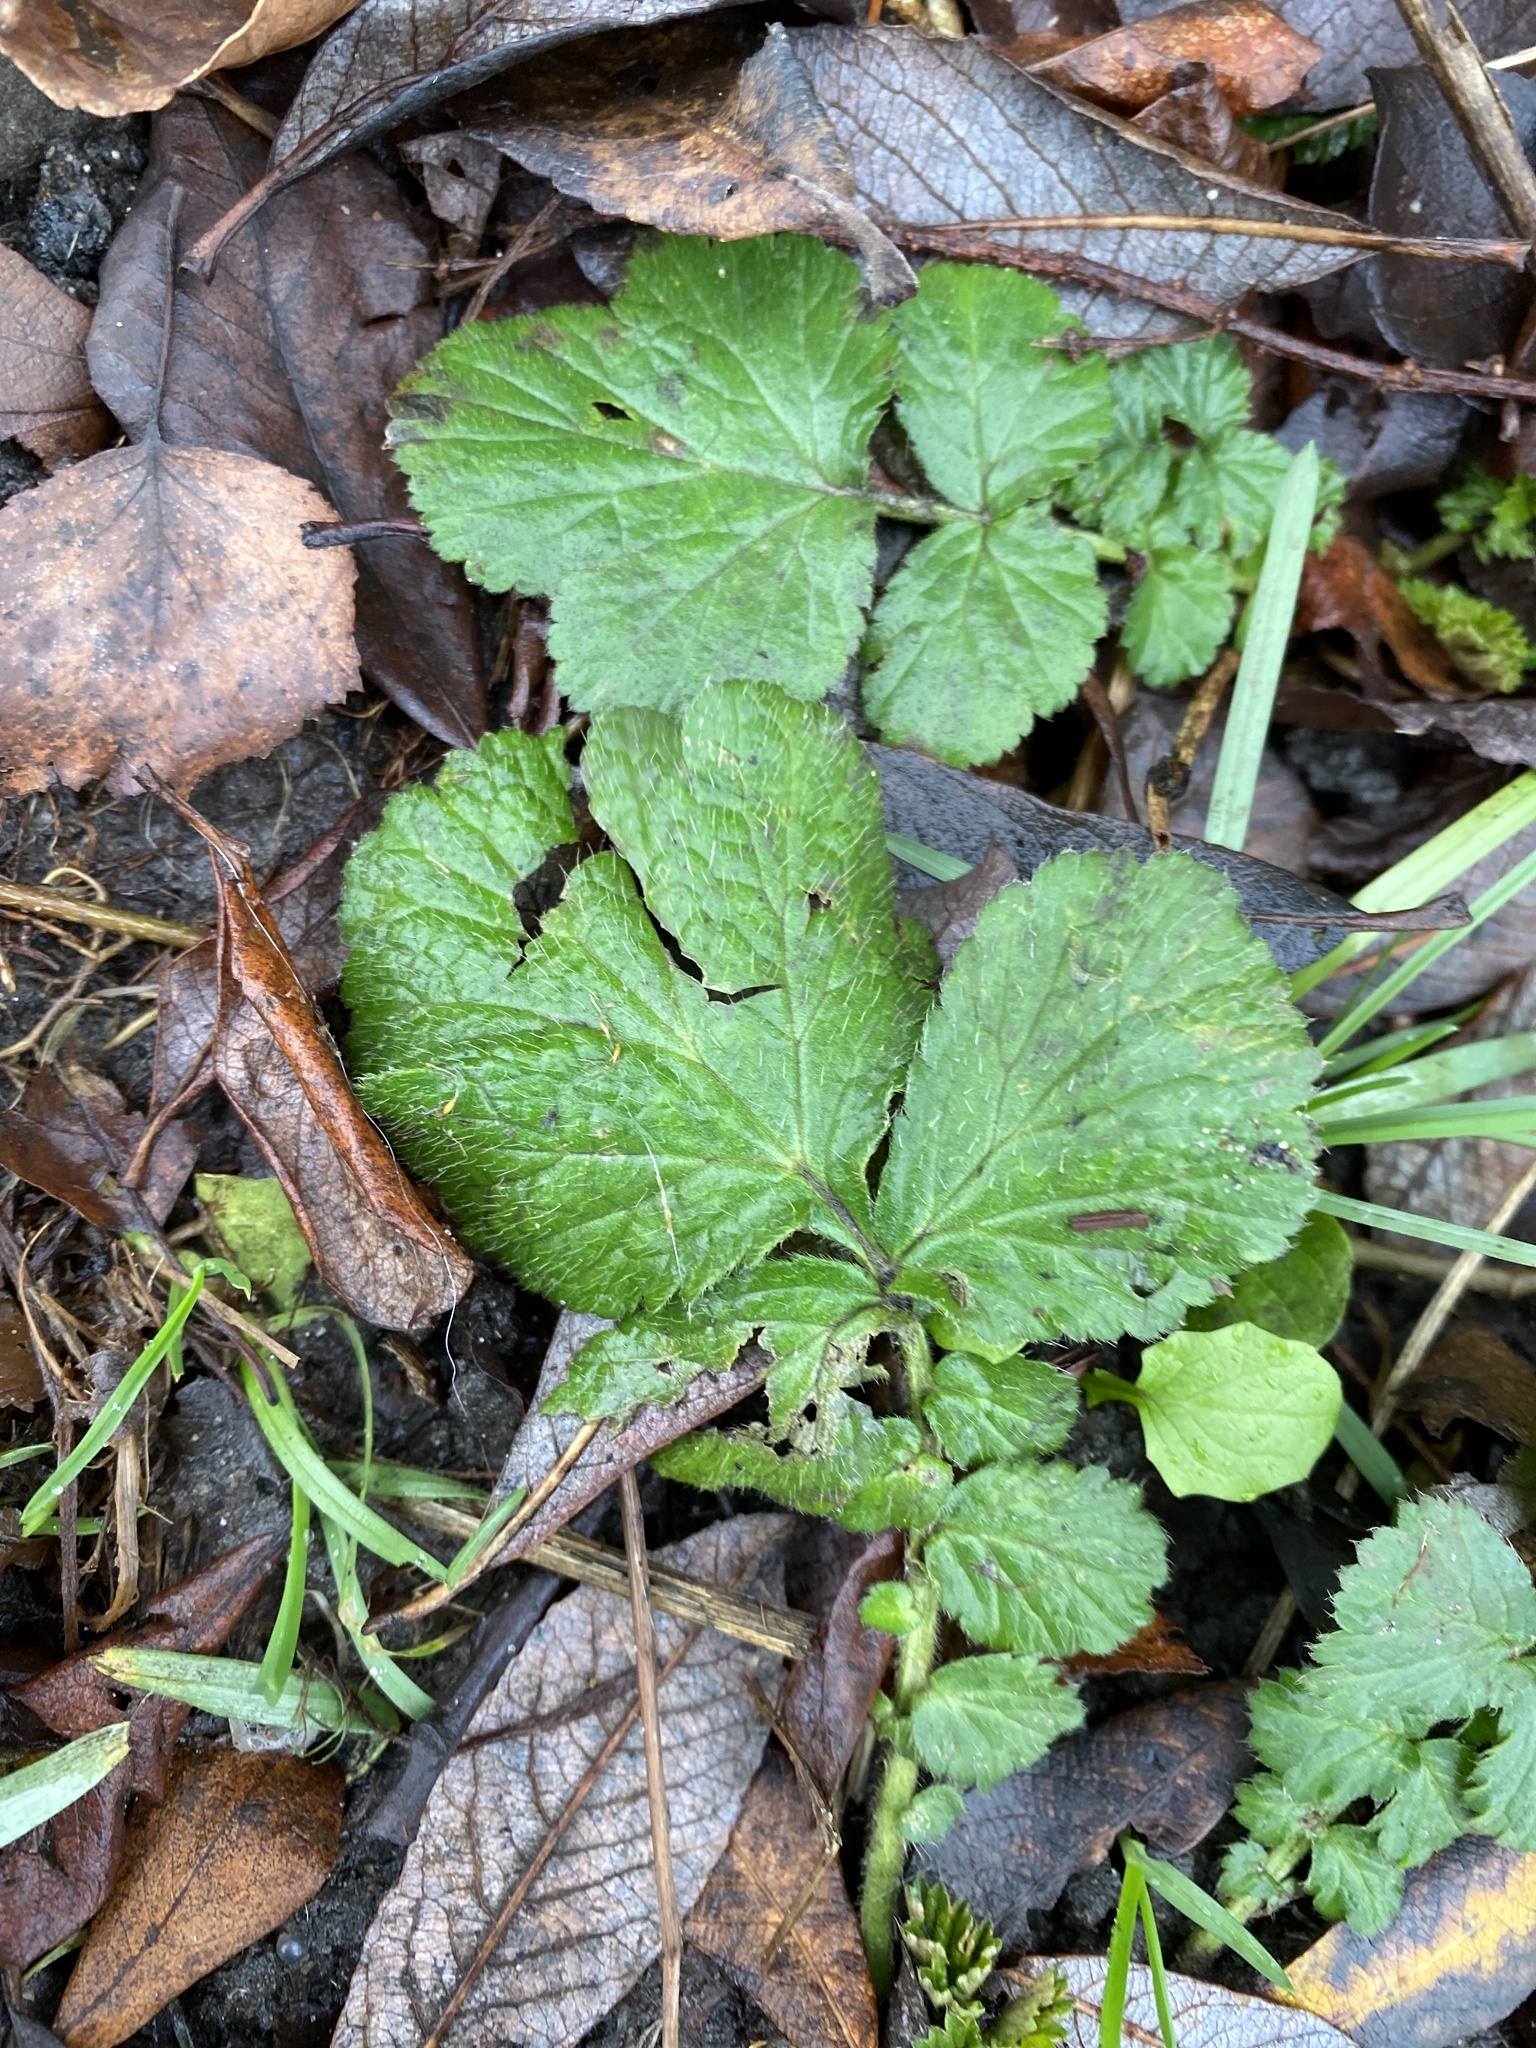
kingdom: Plantae
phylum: Tracheophyta
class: Magnoliopsida
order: Rosales
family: Rosaceae
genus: Geum
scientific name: Geum urbanum
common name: Wood avens
